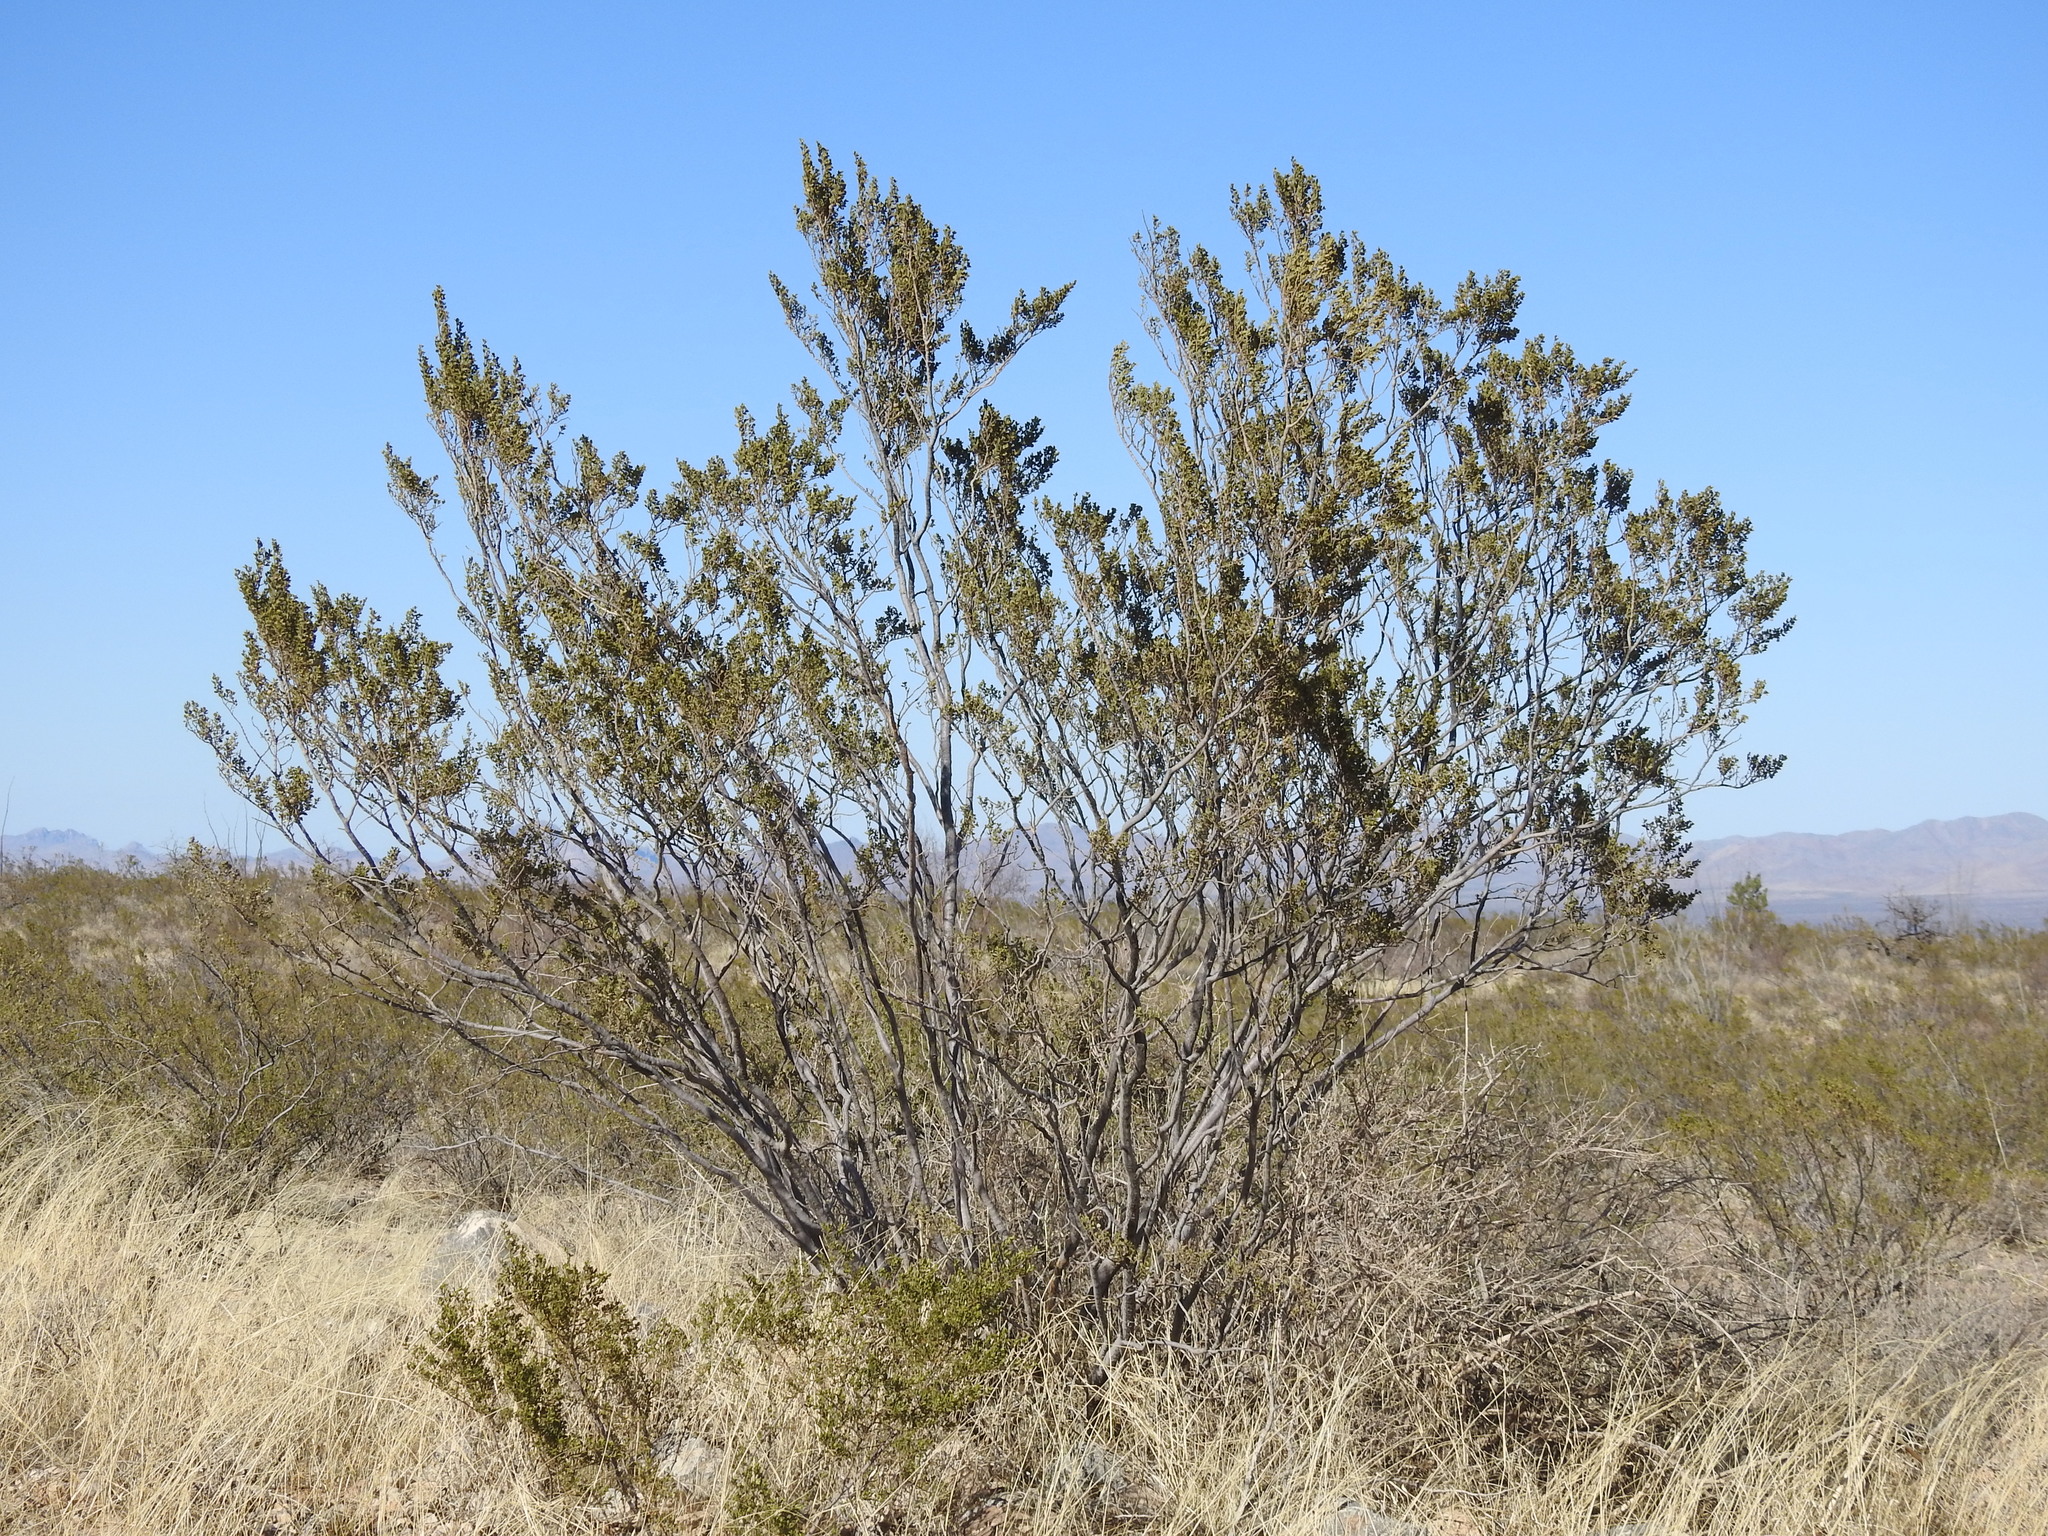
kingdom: Plantae
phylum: Tracheophyta
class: Magnoliopsida
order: Zygophyllales
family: Zygophyllaceae
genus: Larrea
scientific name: Larrea tridentata
